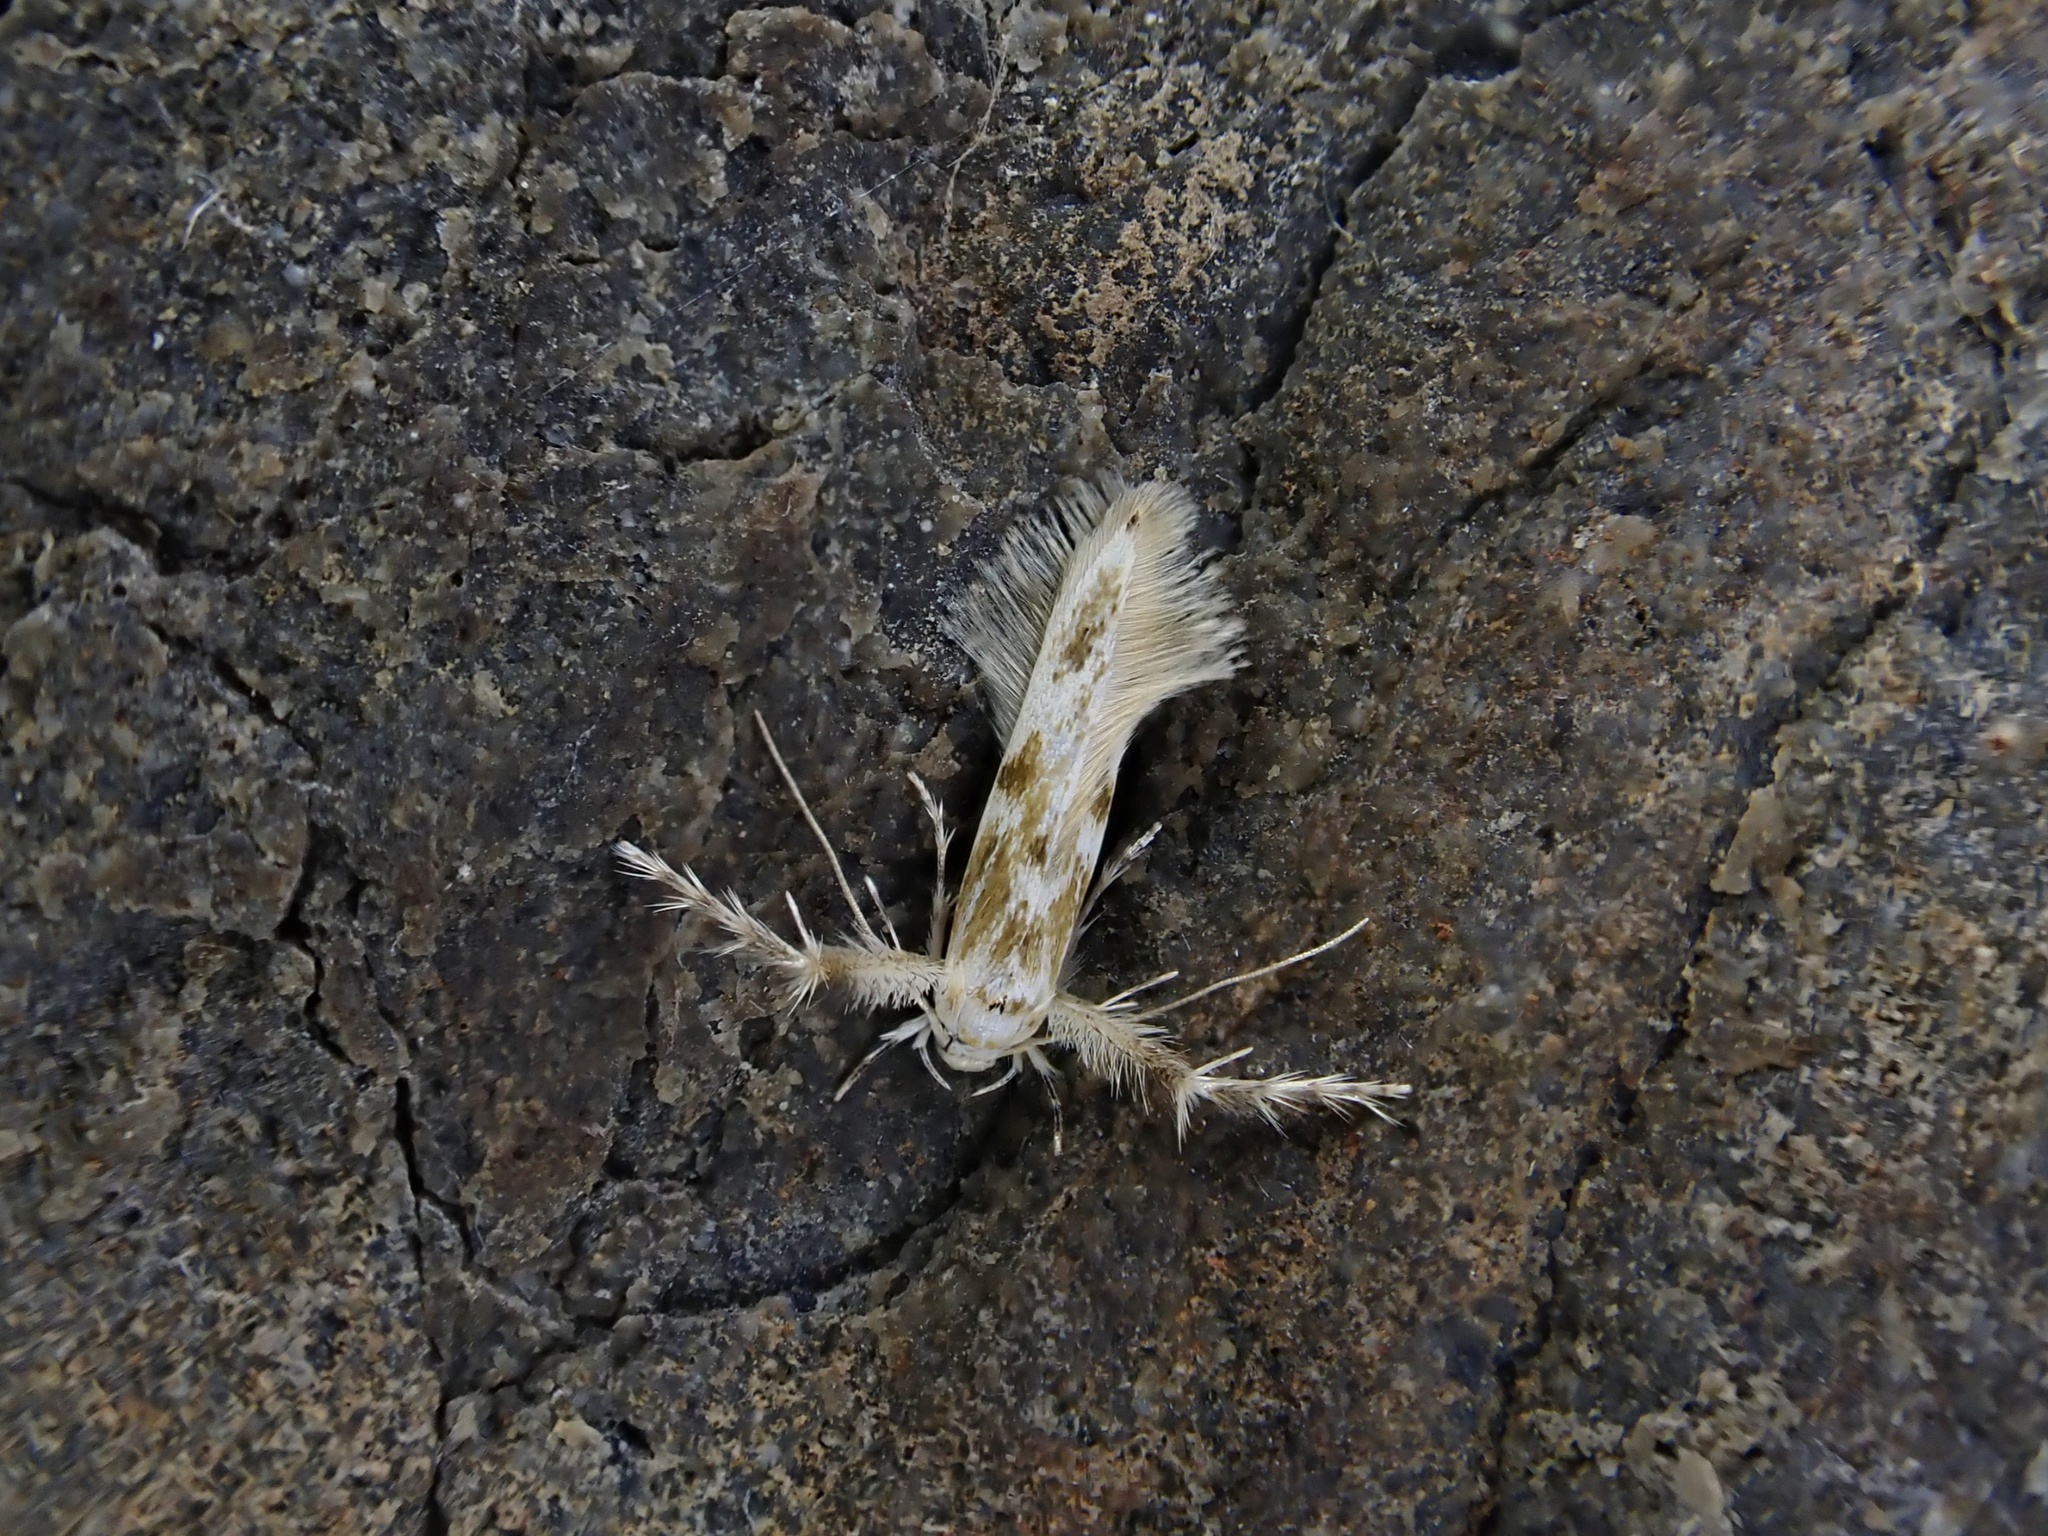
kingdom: Animalia
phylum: Arthropoda
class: Insecta
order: Lepidoptera
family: Stathmopodidae
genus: Calicotis
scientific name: Calicotis crucifera
